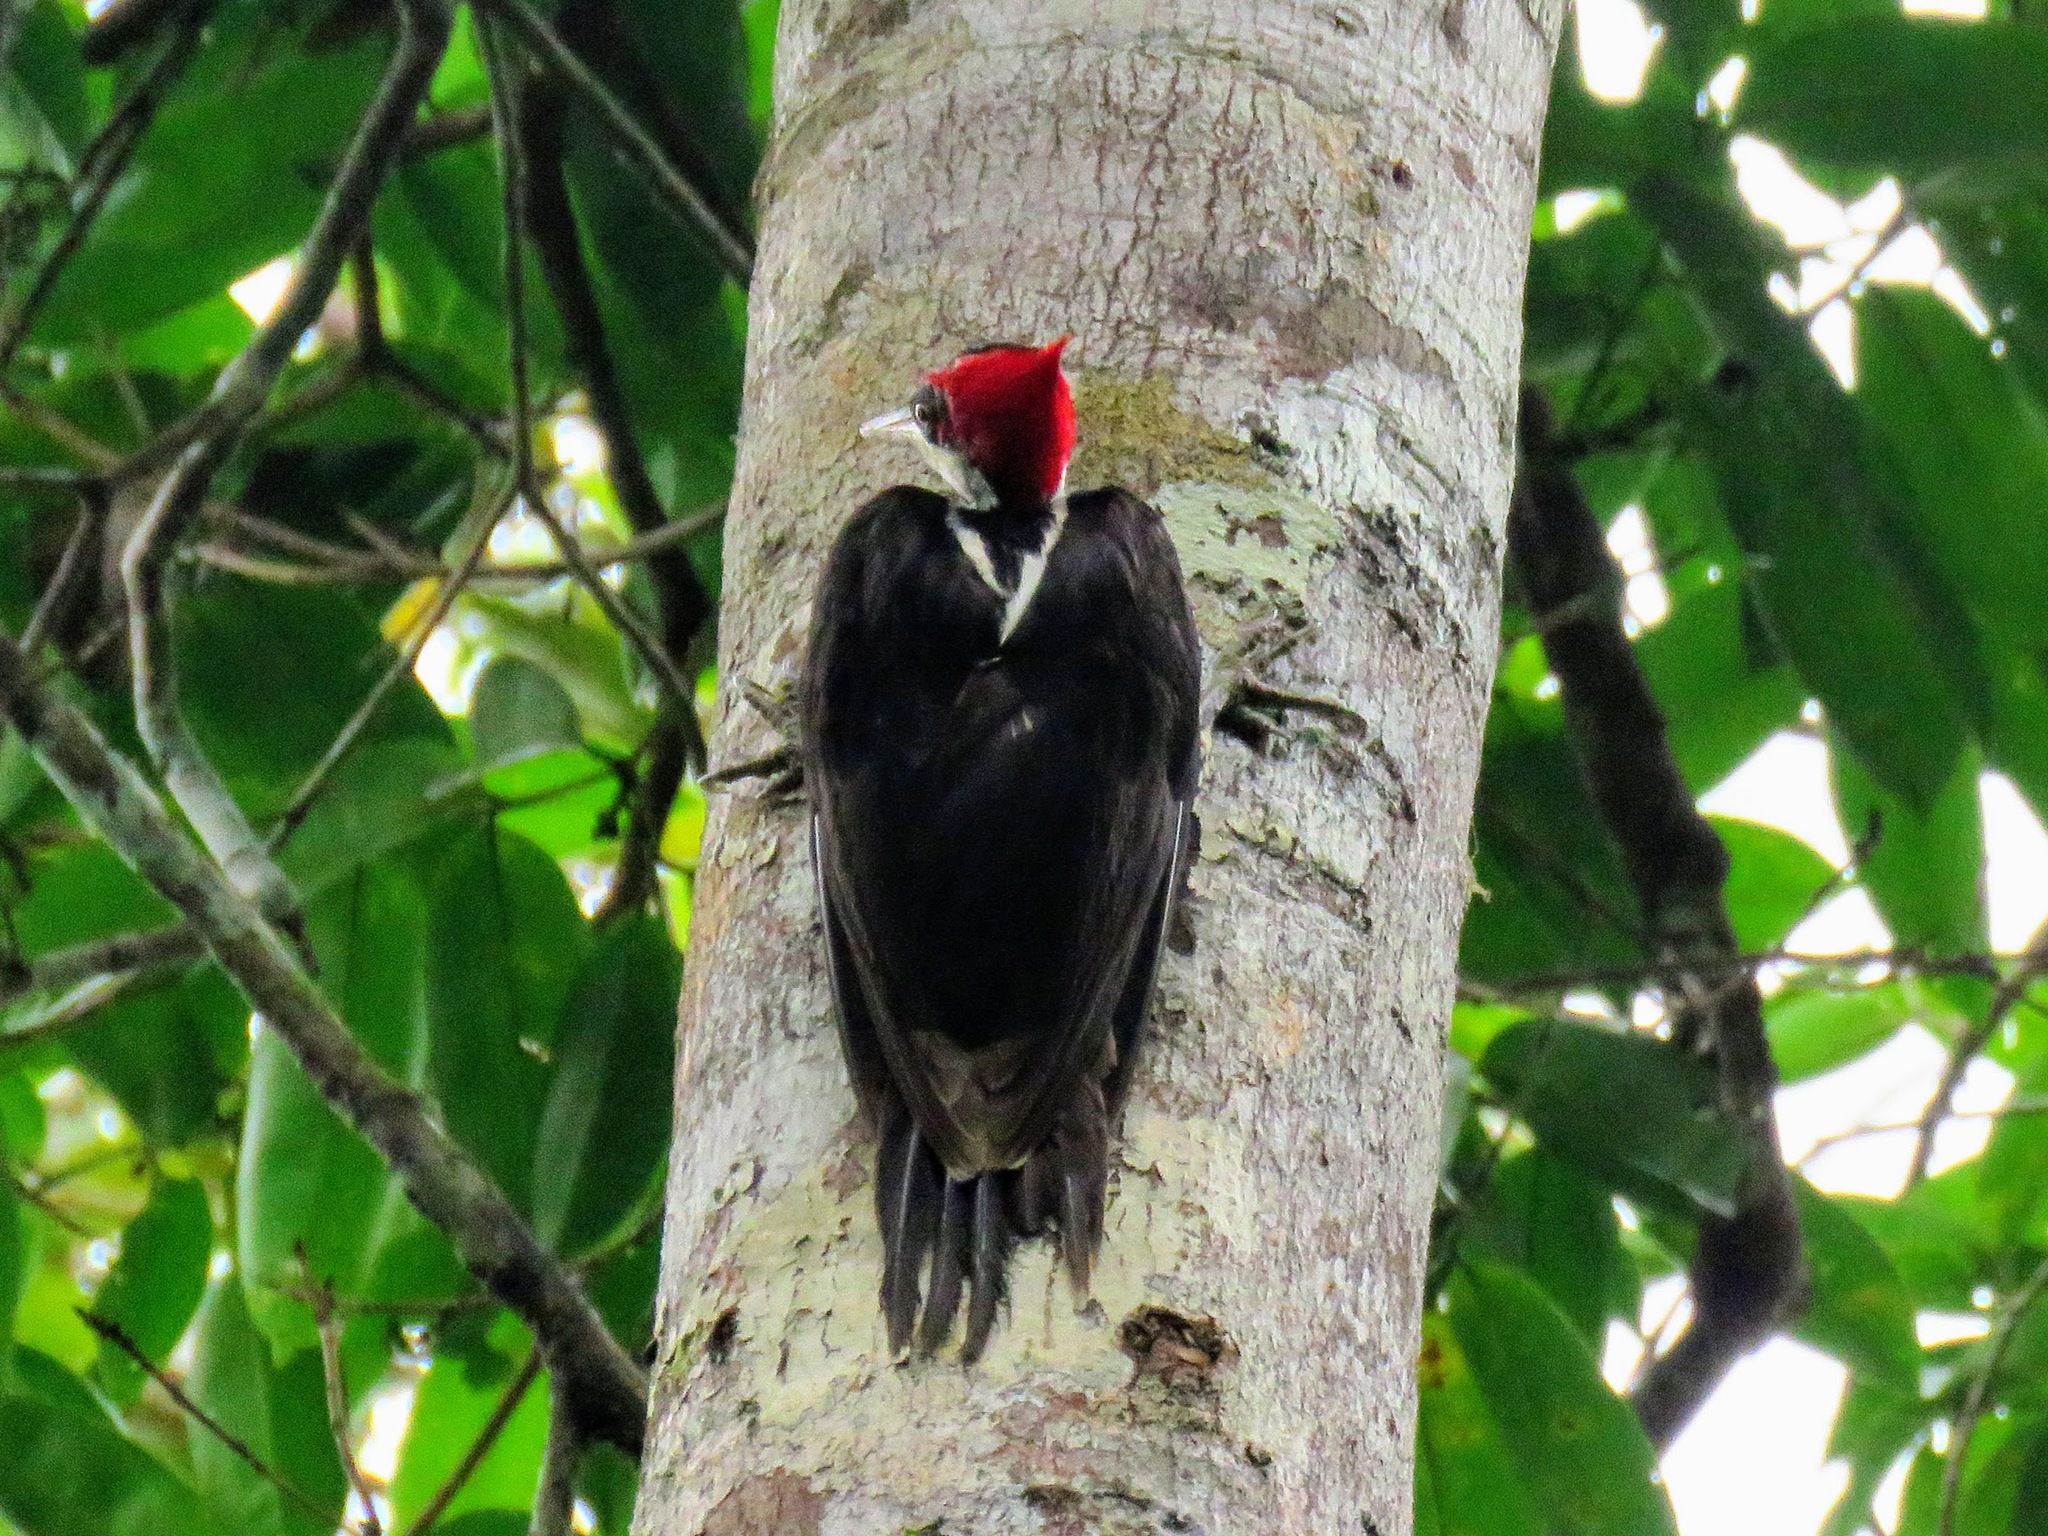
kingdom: Animalia
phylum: Chordata
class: Aves
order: Piciformes
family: Picidae
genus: Campephilus
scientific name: Campephilus melanoleucos
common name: Crimson-crested woodpecker
